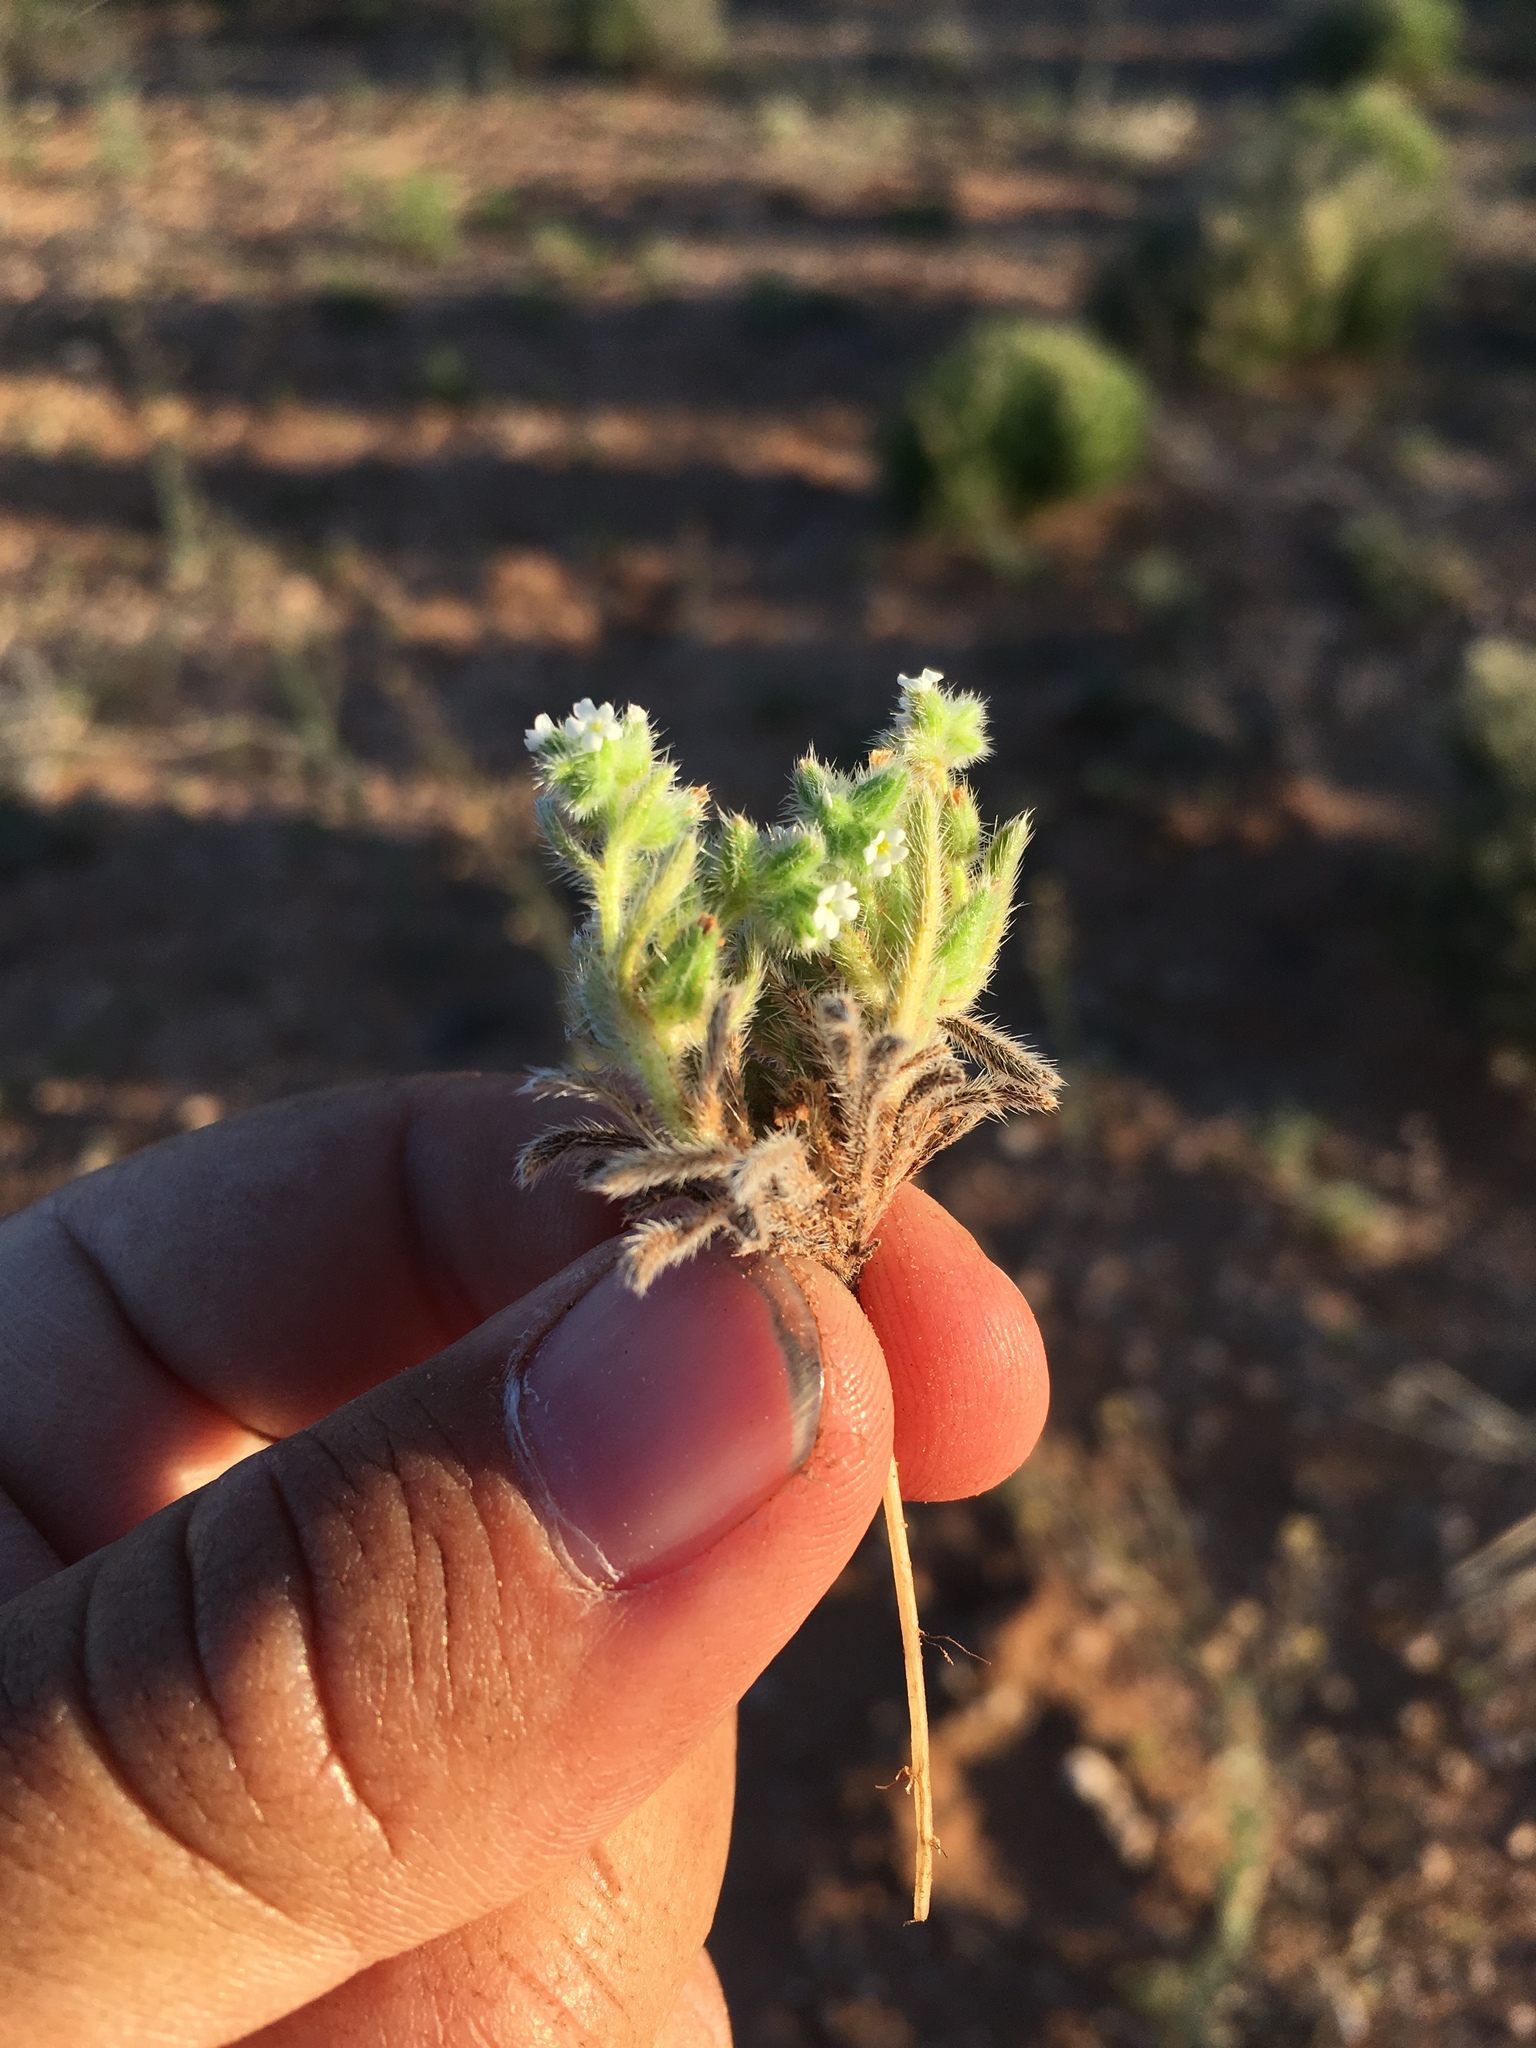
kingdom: Plantae
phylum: Tracheophyta
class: Magnoliopsida
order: Boraginales
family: Boraginaceae
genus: Cryptantha
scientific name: Cryptantha crassisepala
